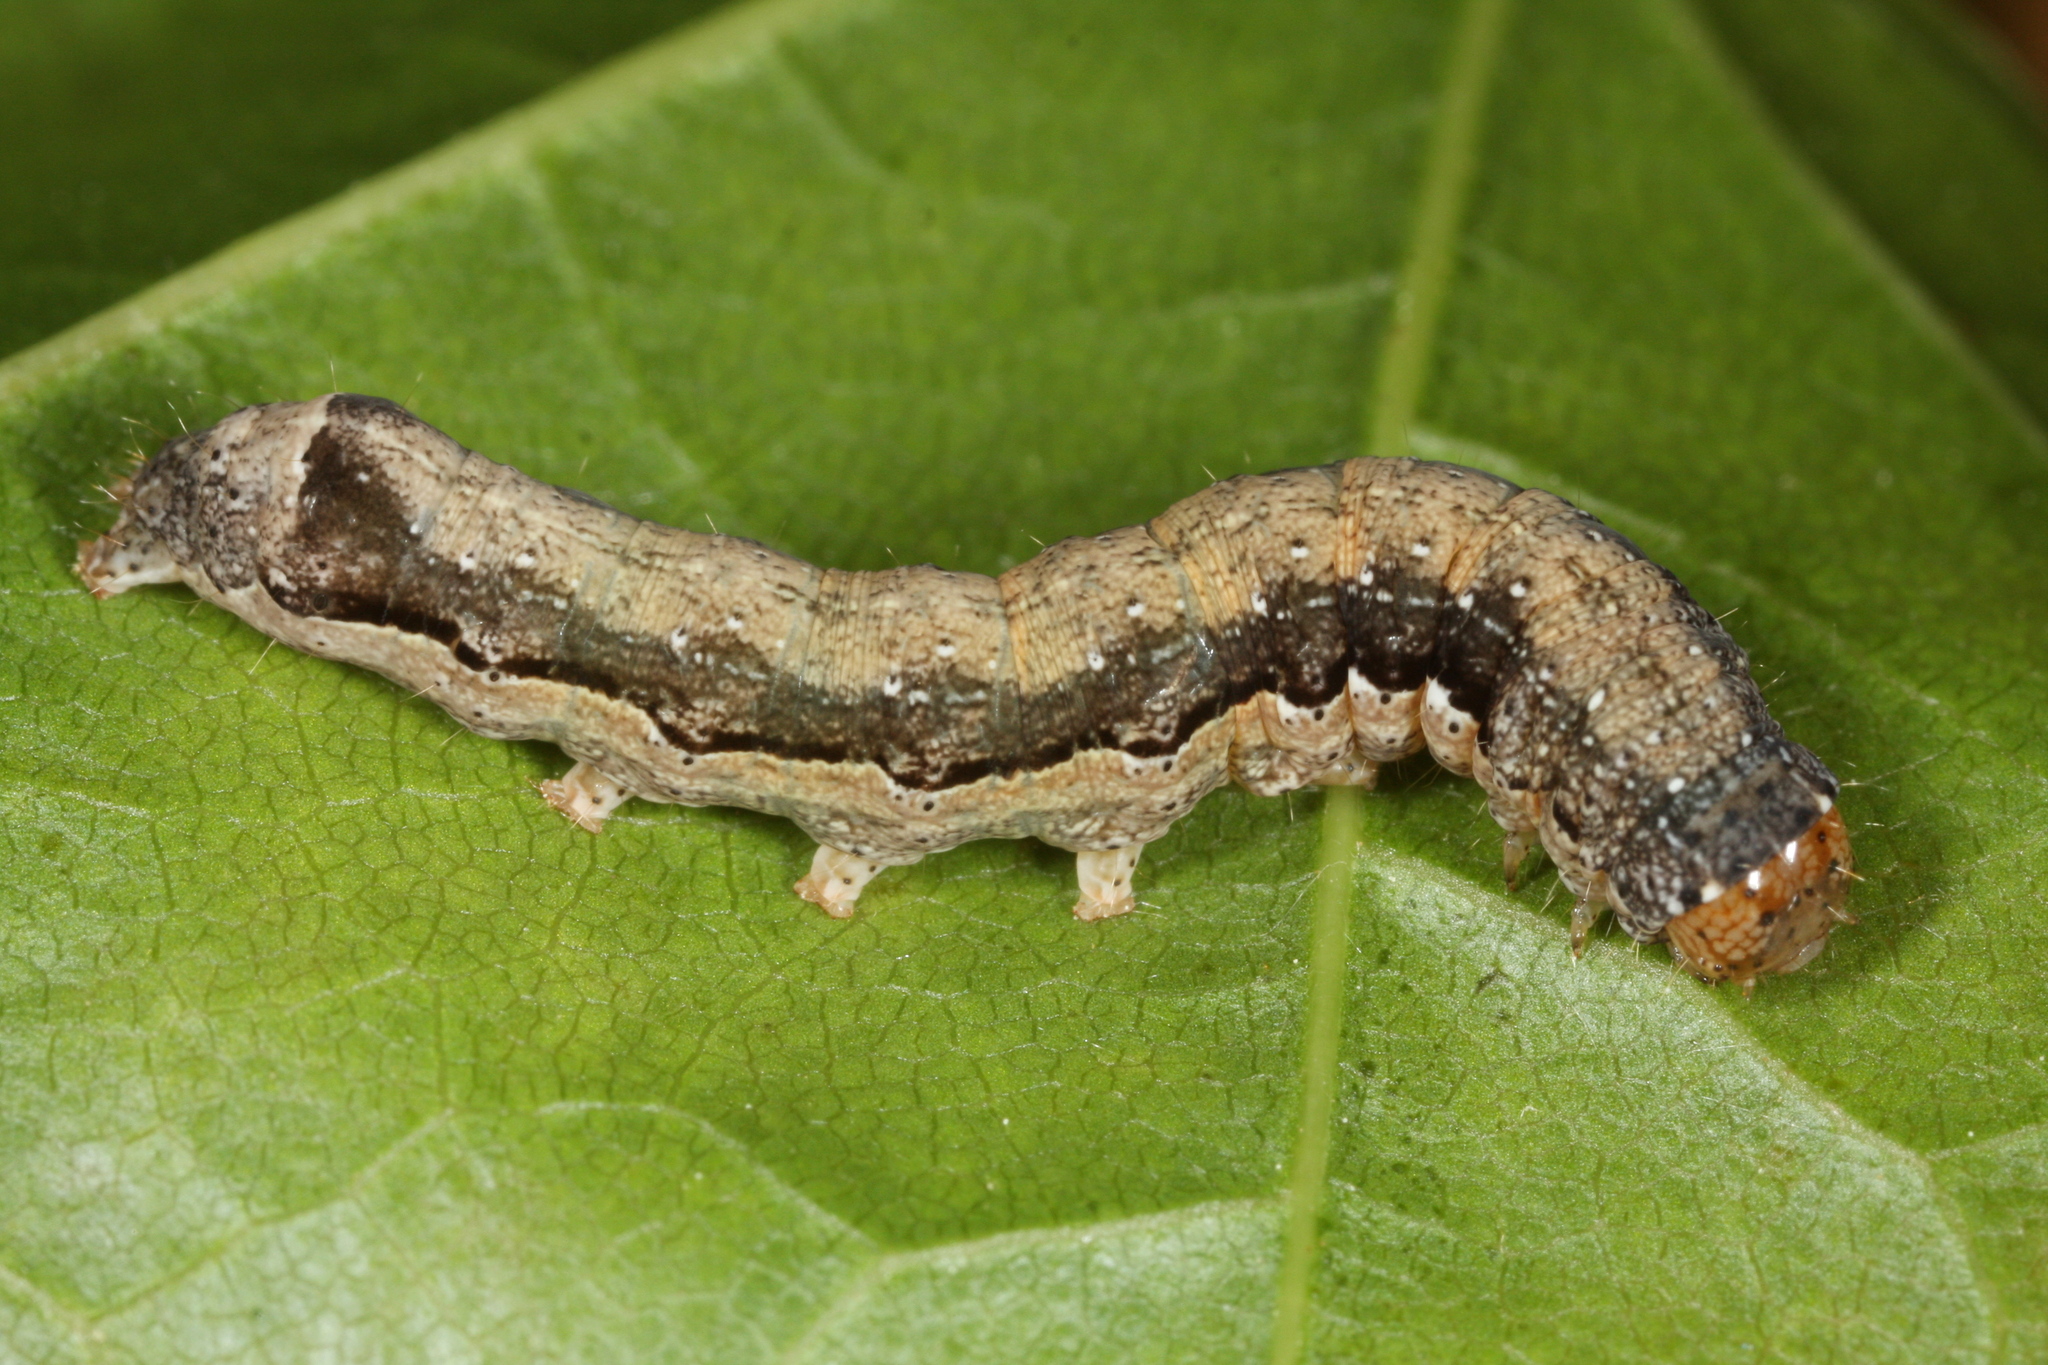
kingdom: Animalia
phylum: Arthropoda
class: Insecta
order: Lepidoptera
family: Noctuidae
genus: Anorthoa
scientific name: Anorthoa munda
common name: Twin-spotted quaker
